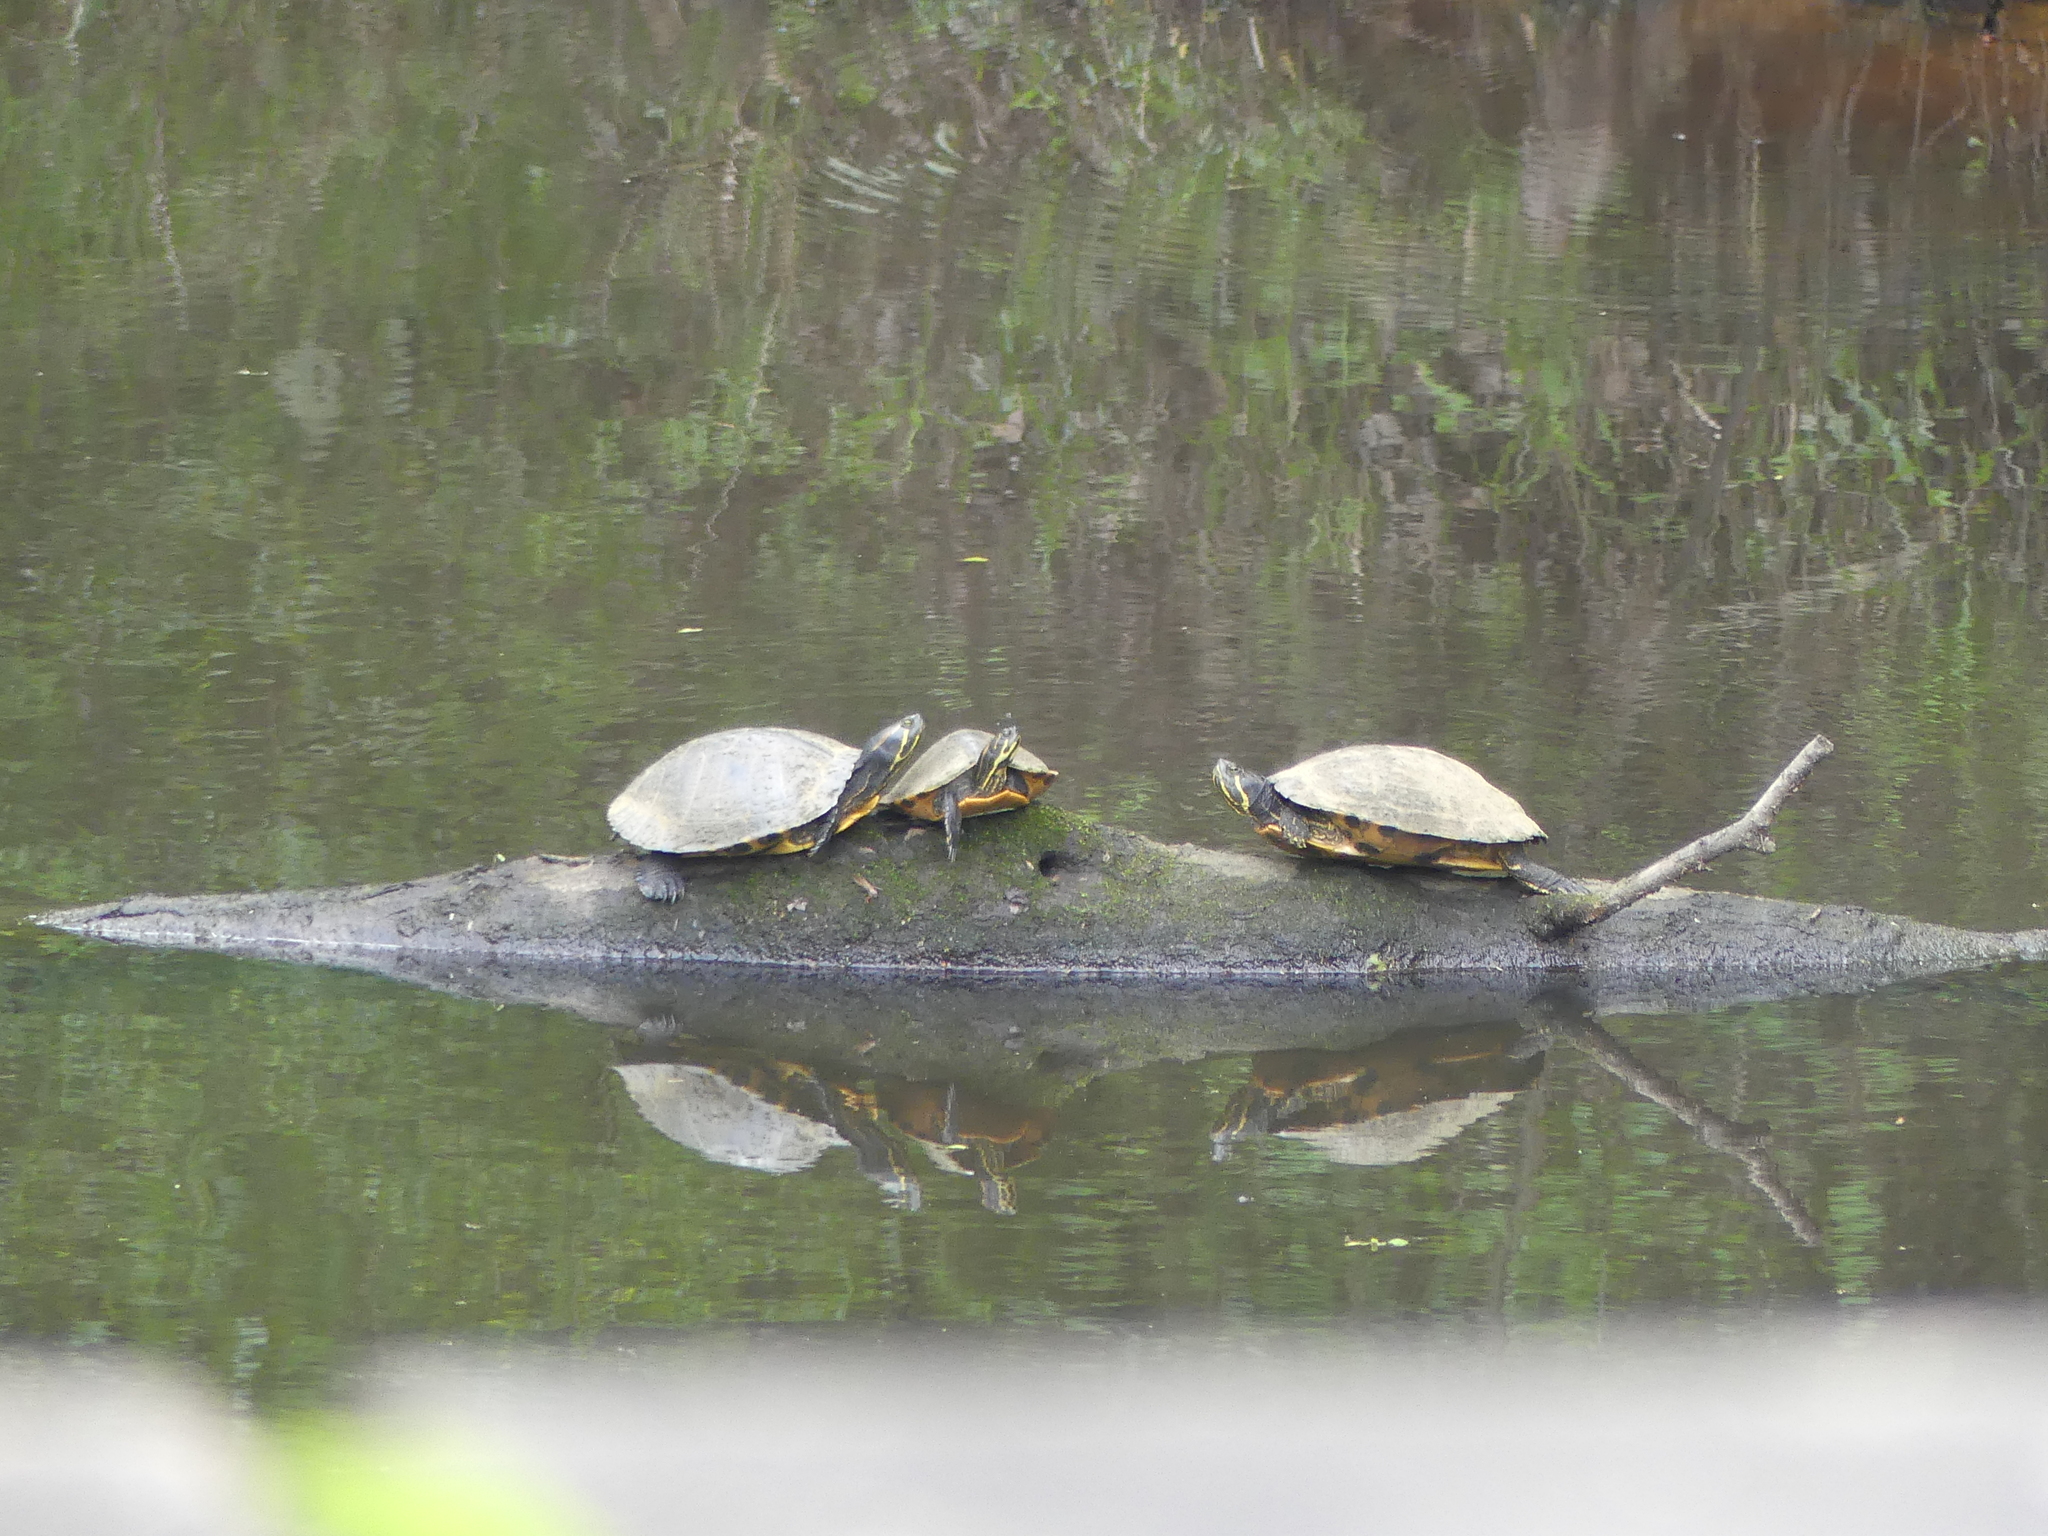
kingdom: Animalia
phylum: Chordata
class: Testudines
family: Emydidae
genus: Pseudemys
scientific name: Pseudemys concinna
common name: Eastern river cooter
